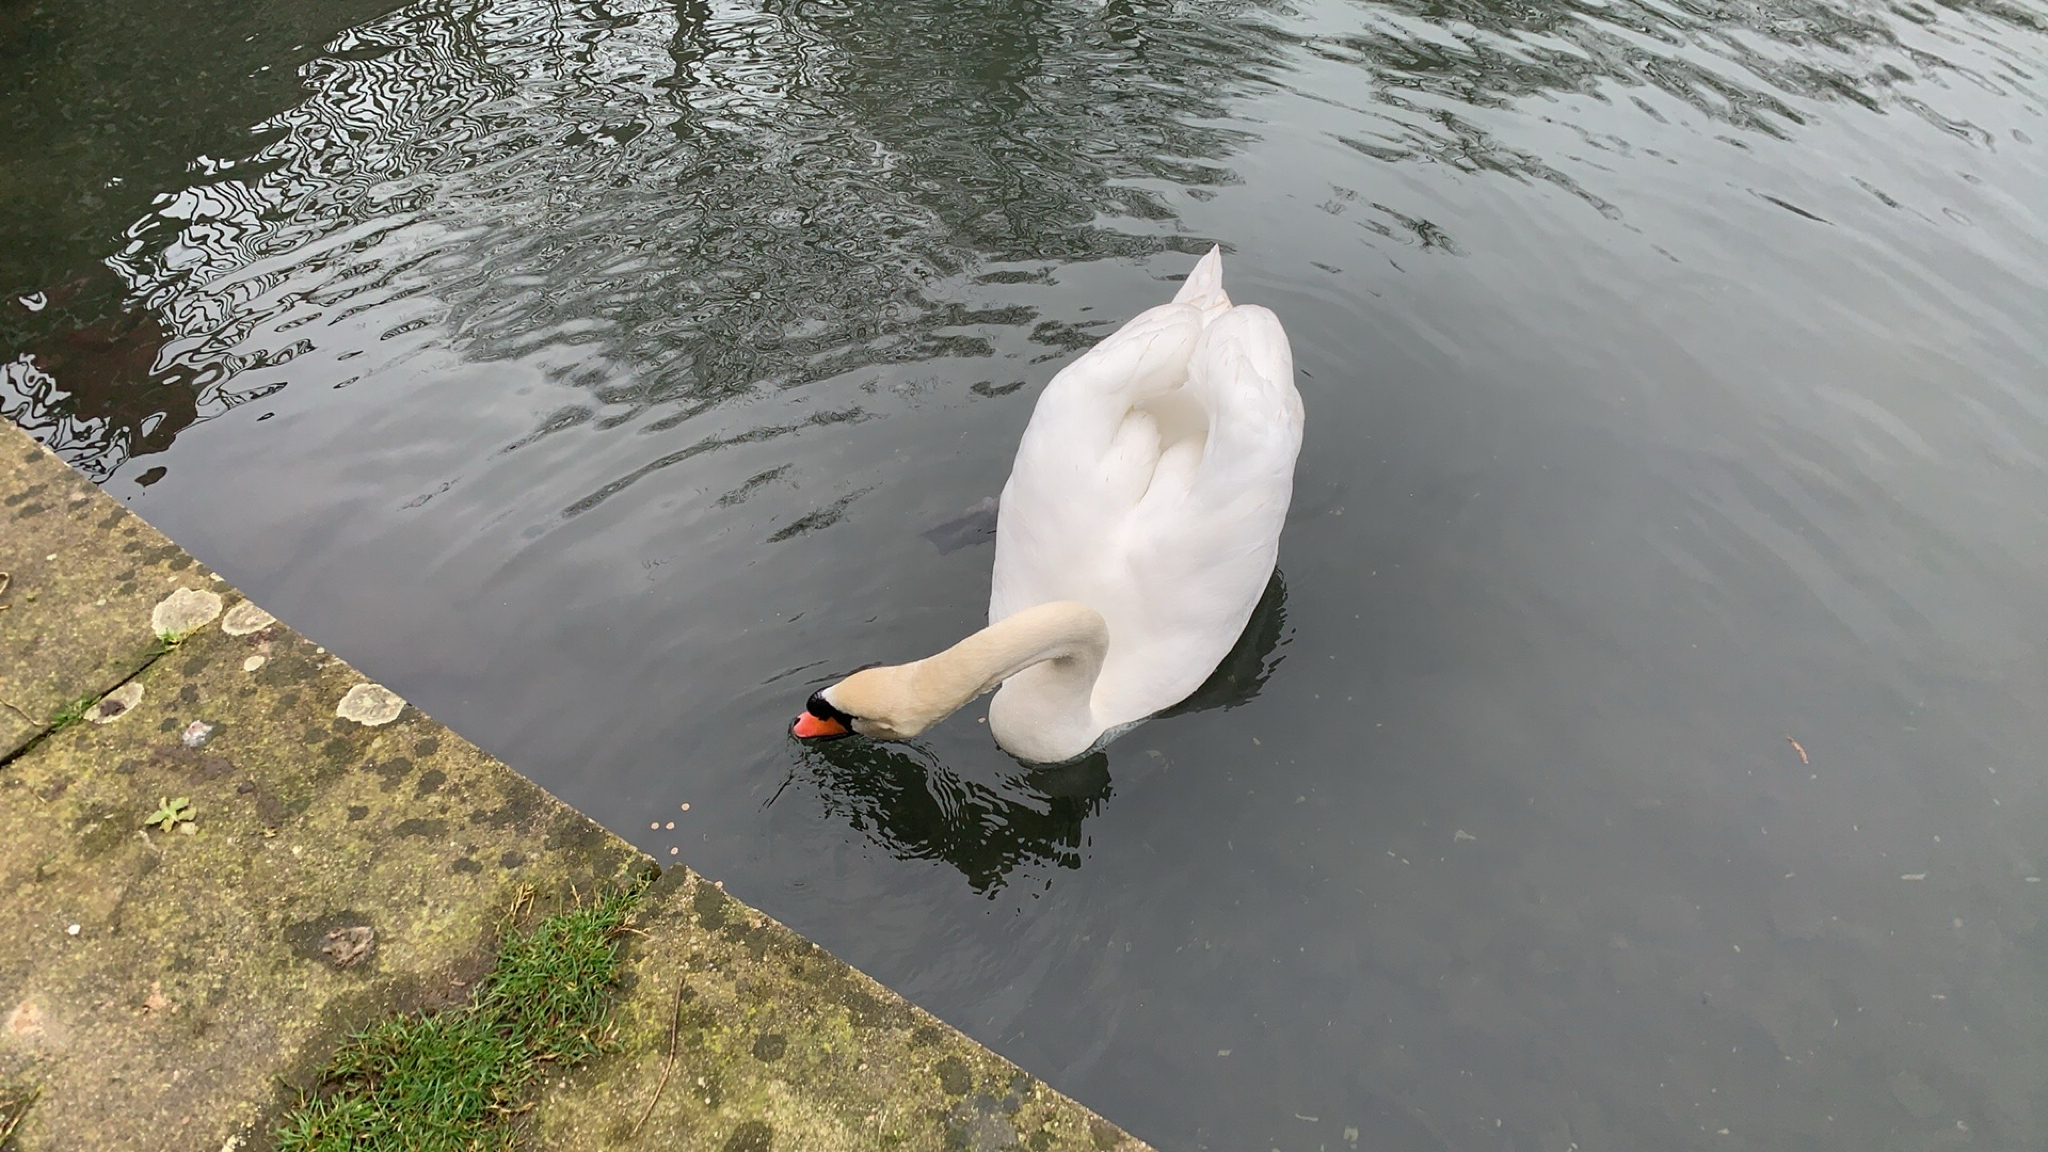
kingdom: Animalia
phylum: Chordata
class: Aves
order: Anseriformes
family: Anatidae
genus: Cygnus
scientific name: Cygnus olor
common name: Mute swan
